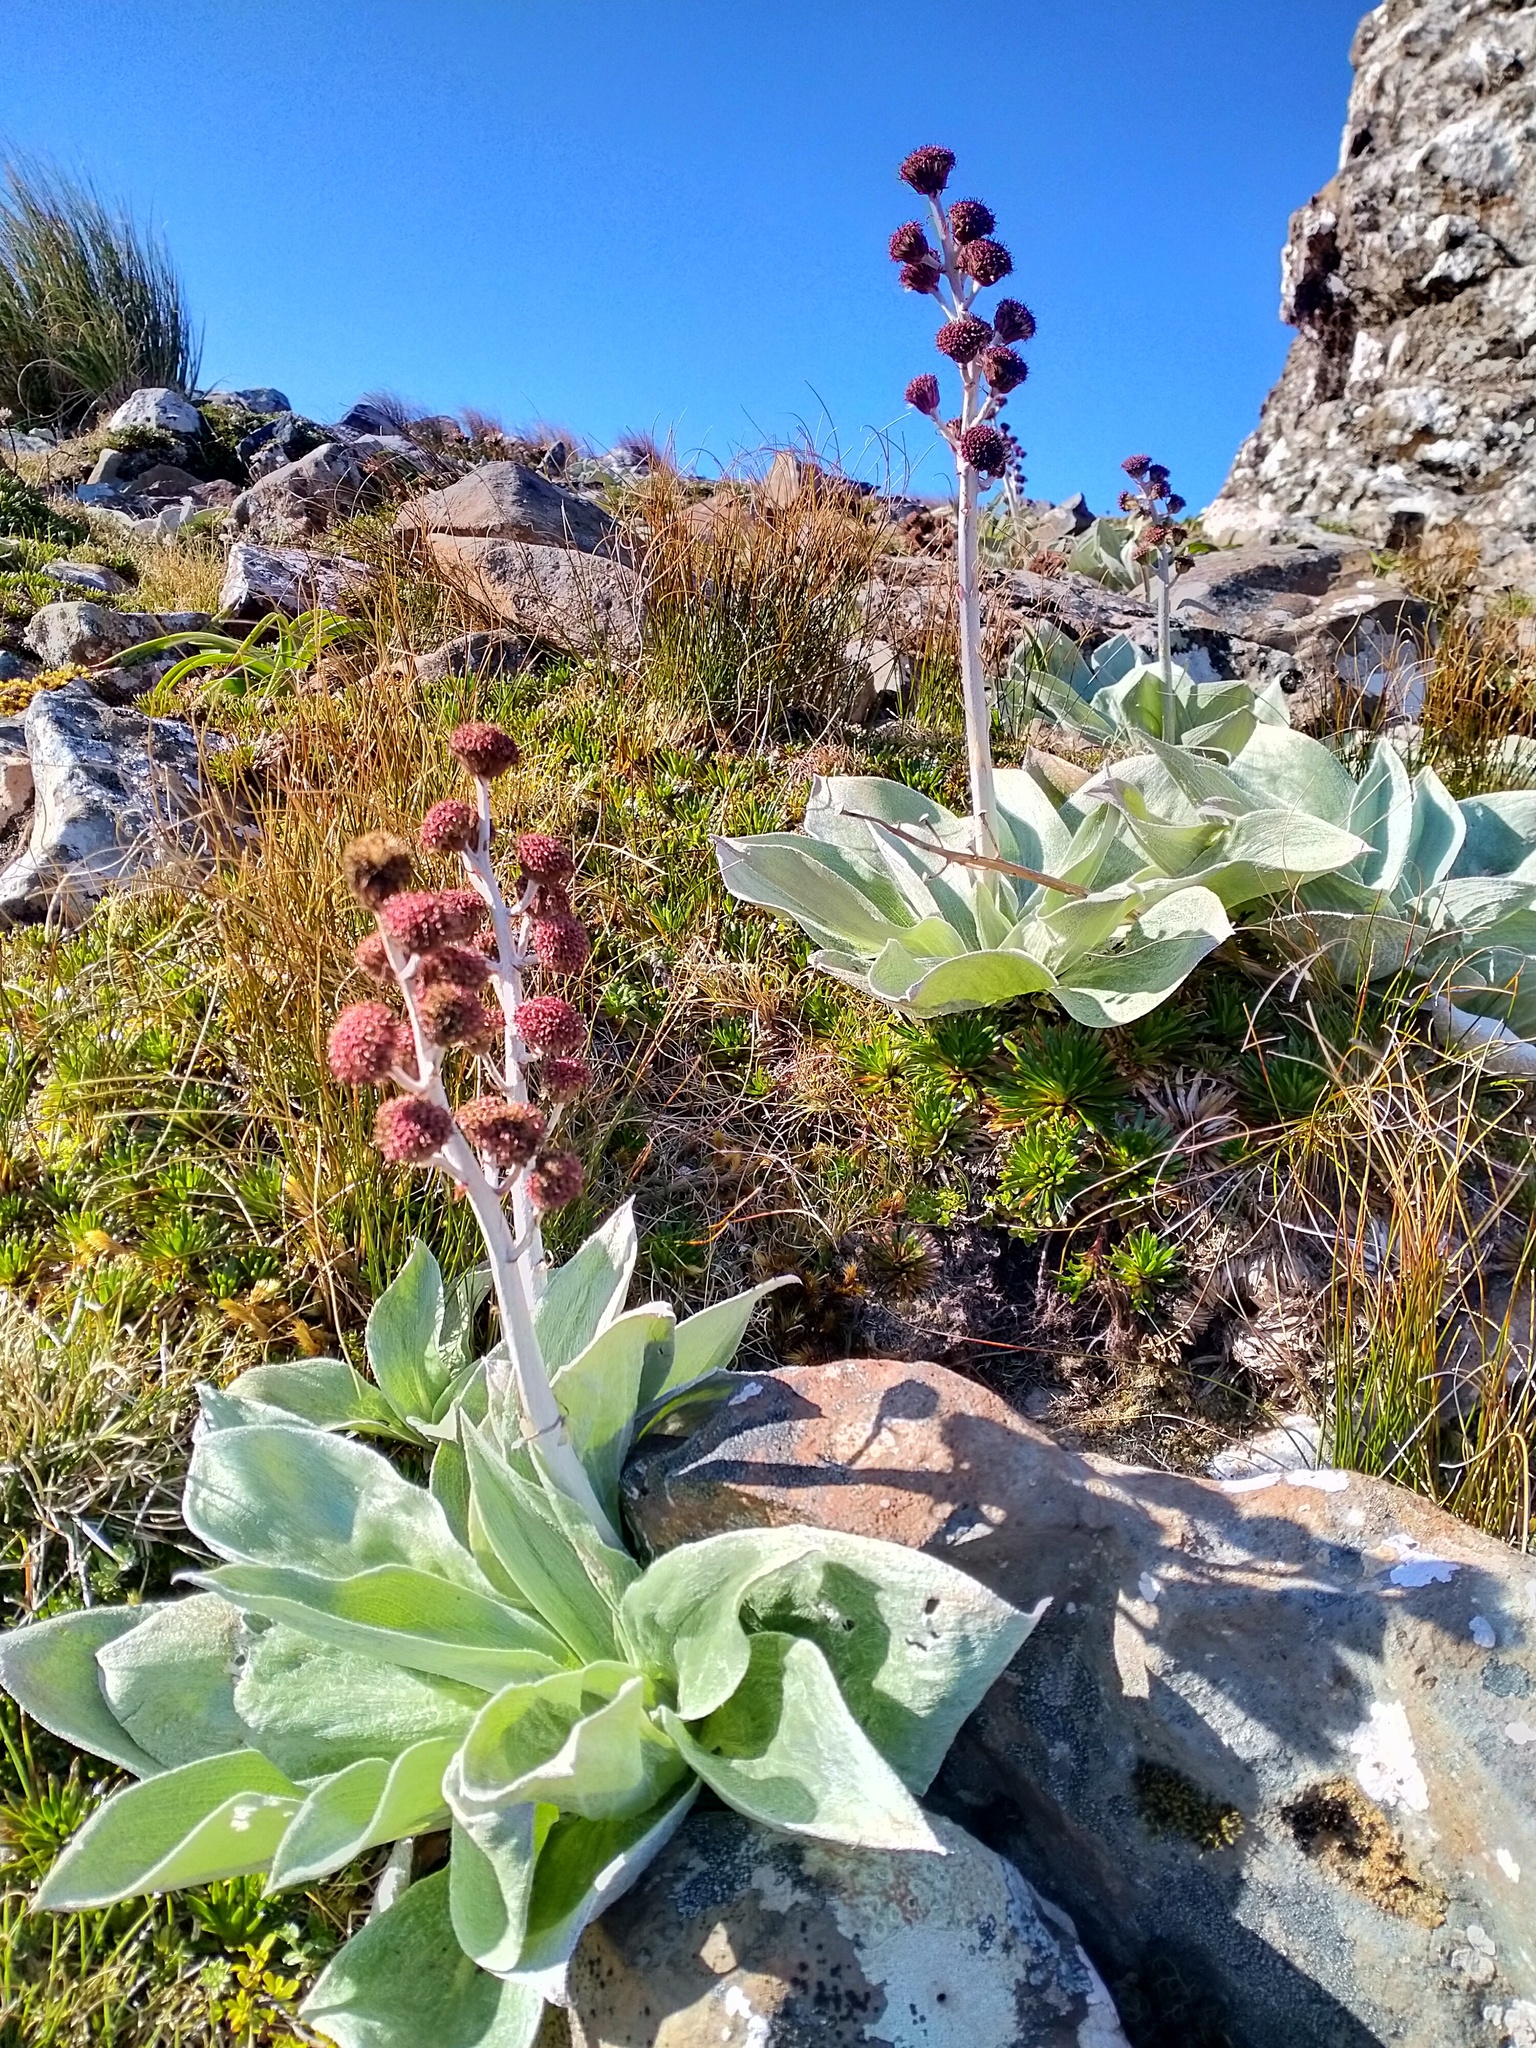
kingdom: Plantae
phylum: Tracheophyta
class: Magnoliopsida
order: Asterales
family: Asteraceae
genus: Pleurophyllum
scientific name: Pleurophyllum hookeri
